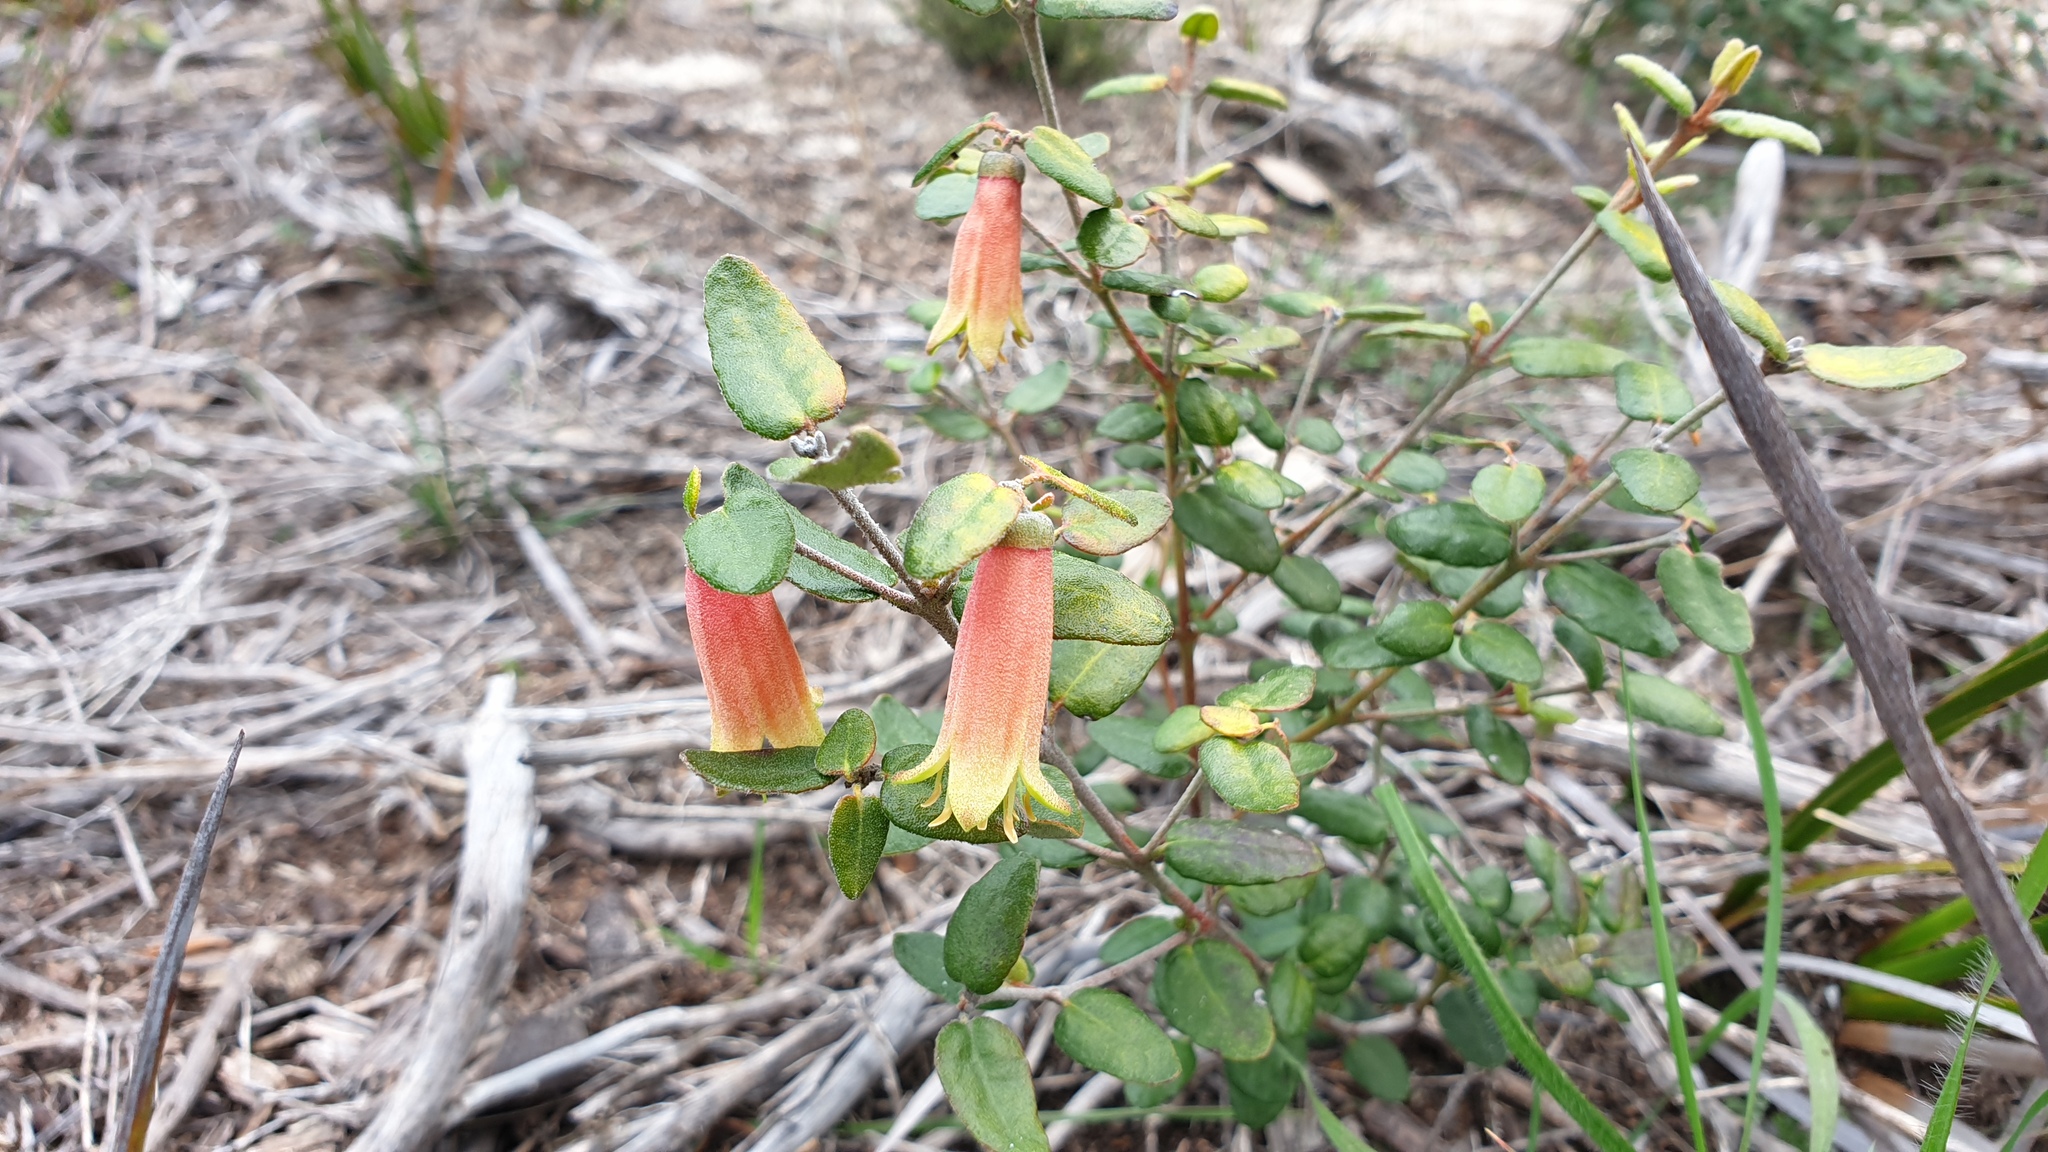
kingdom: Plantae
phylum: Tracheophyta
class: Magnoliopsida
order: Sapindales
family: Rutaceae
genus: Correa
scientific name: Correa reflexa
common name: Common correa
